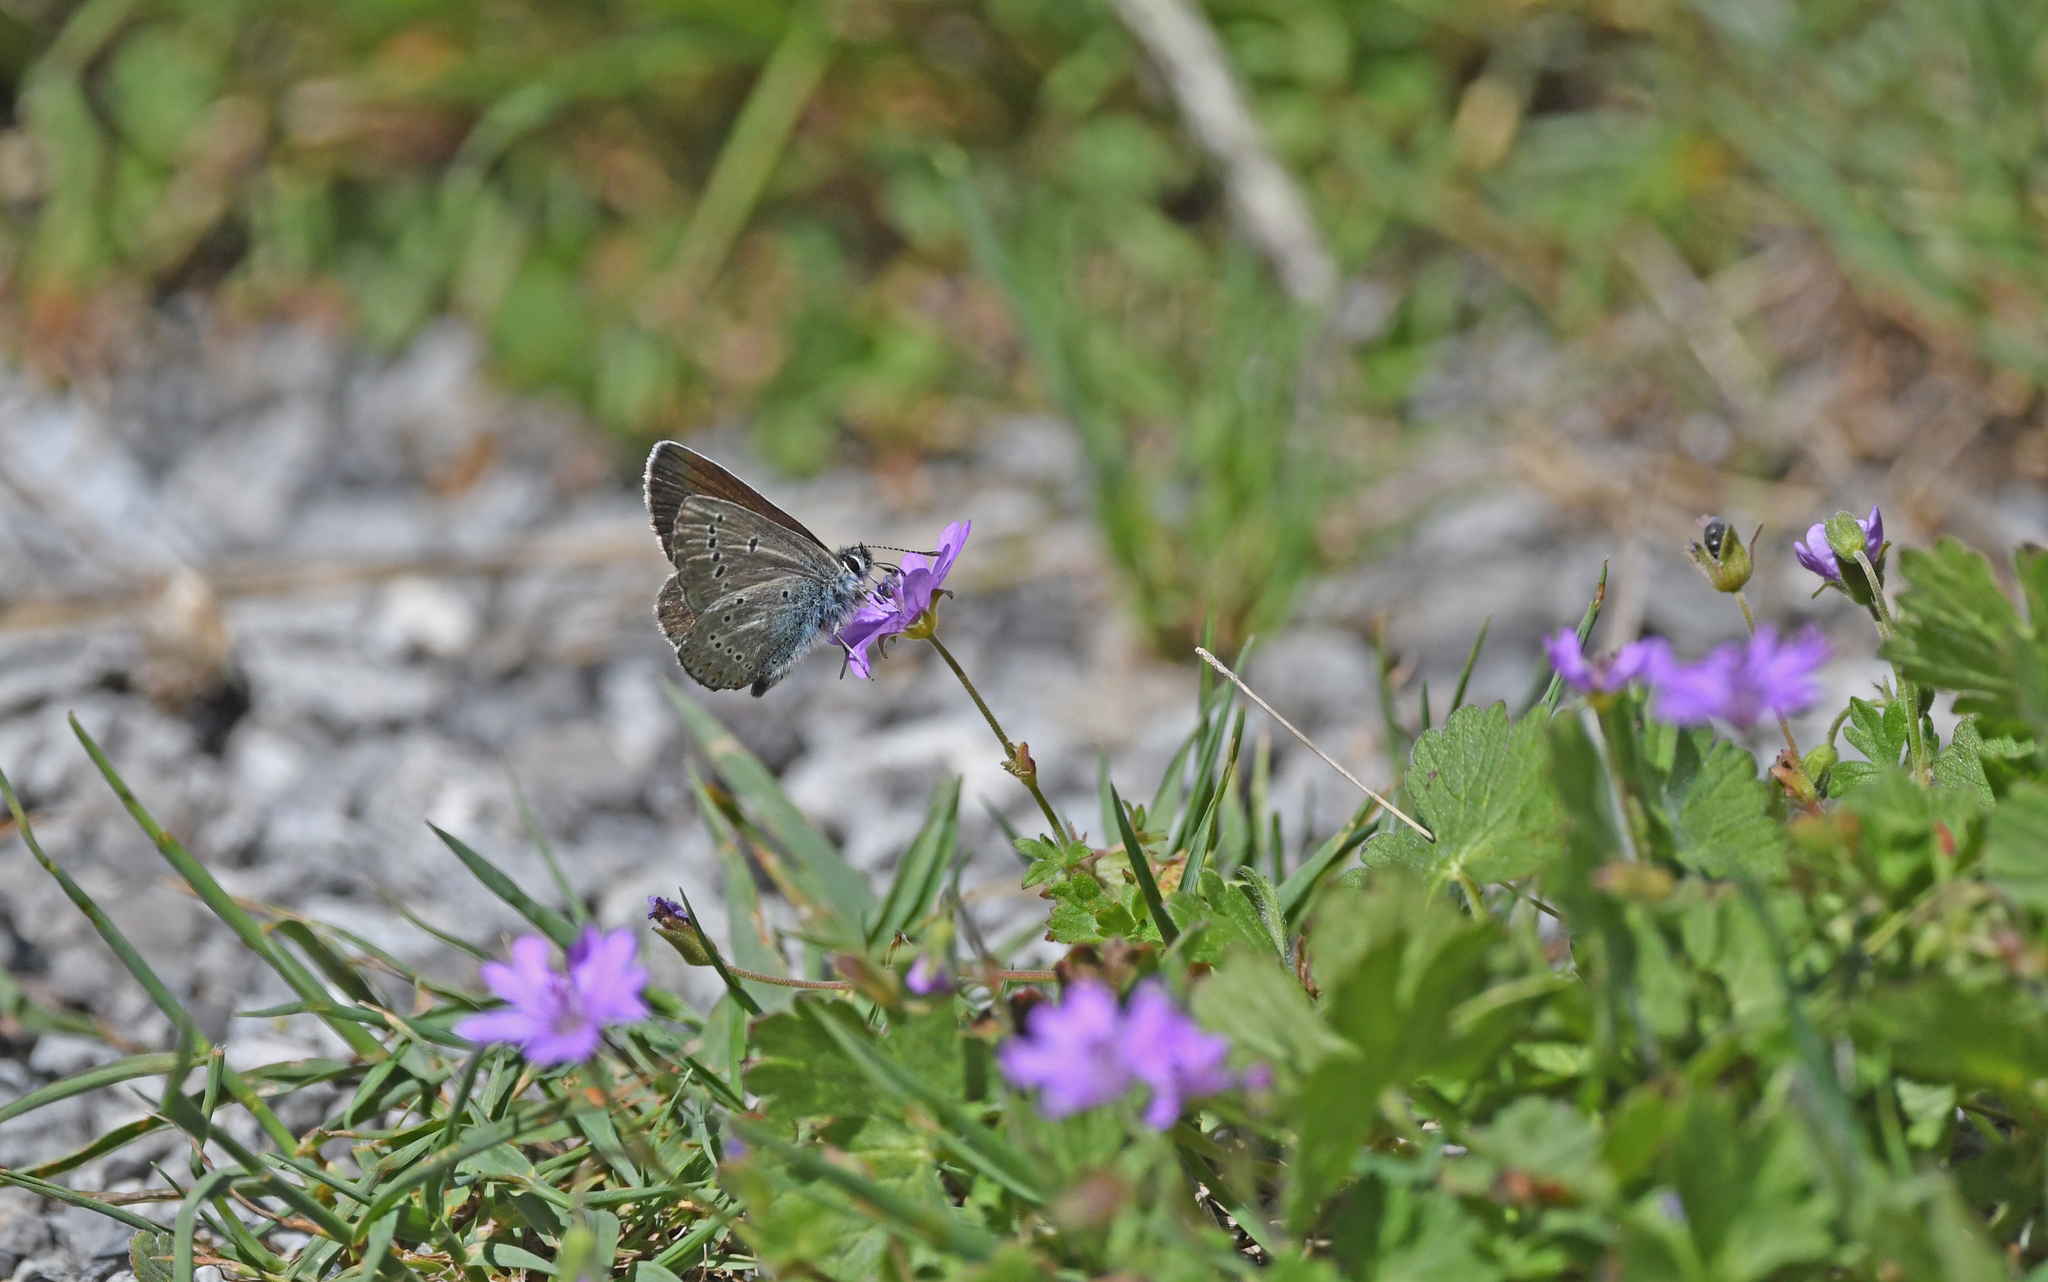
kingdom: Animalia
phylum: Arthropoda
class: Insecta
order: Lepidoptera
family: Lycaenidae
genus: Eumedonia
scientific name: Eumedonia eumedon
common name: Geranium argus
